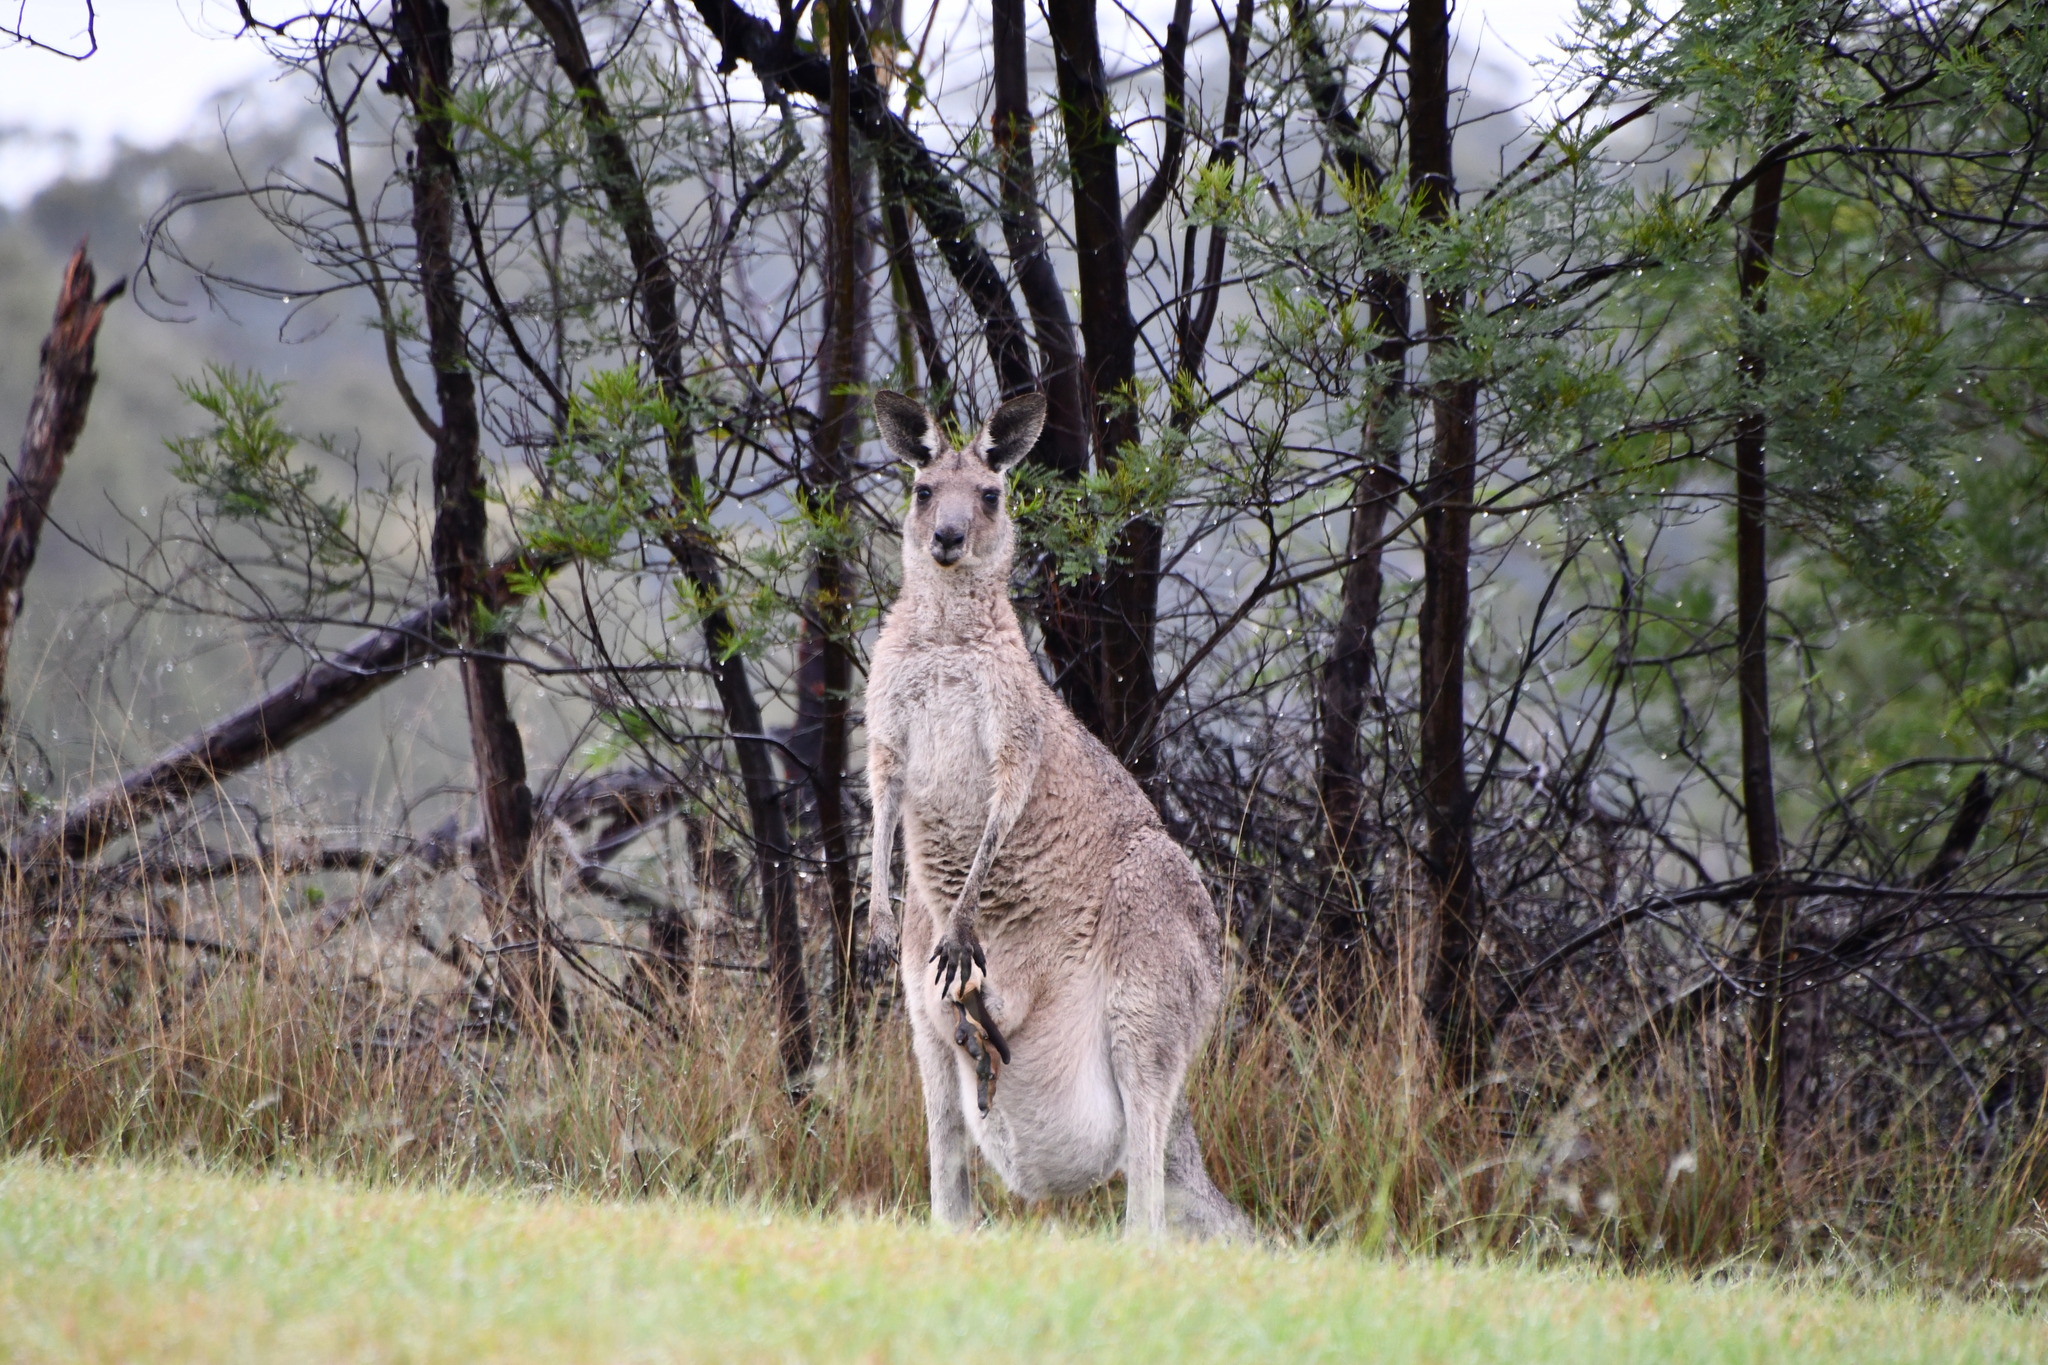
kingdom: Animalia
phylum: Chordata
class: Mammalia
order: Diprotodontia
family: Macropodidae
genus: Macropus
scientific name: Macropus giganteus
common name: Eastern grey kangaroo
